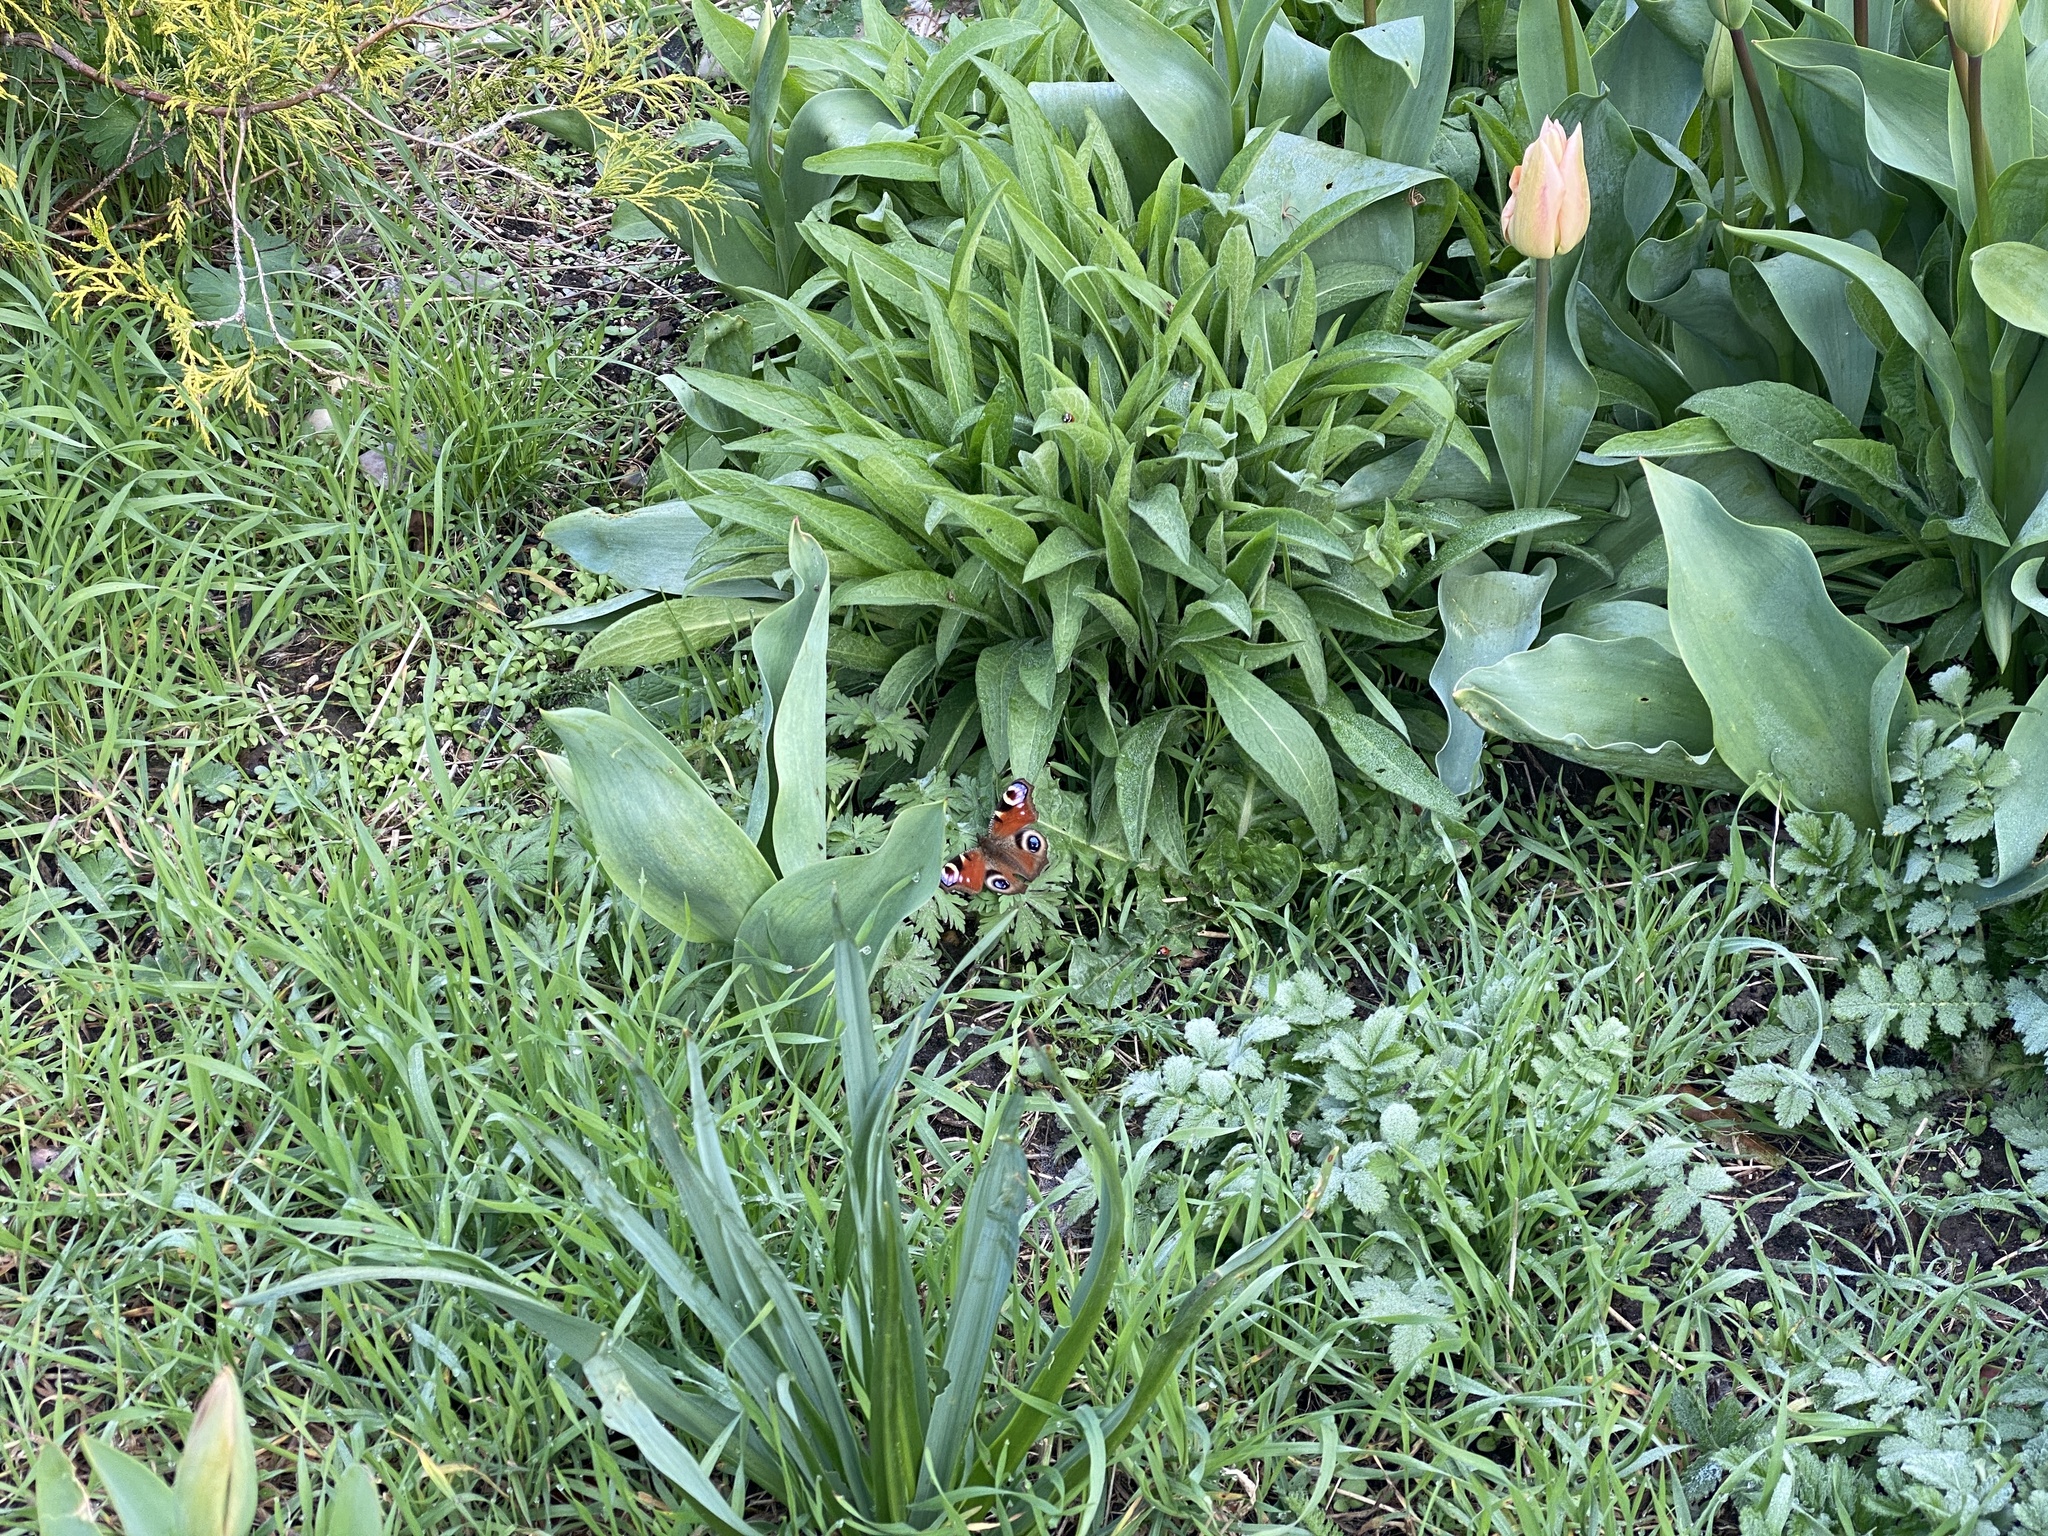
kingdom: Animalia
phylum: Arthropoda
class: Insecta
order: Lepidoptera
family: Nymphalidae
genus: Aglais
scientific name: Aglais io
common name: Peacock
